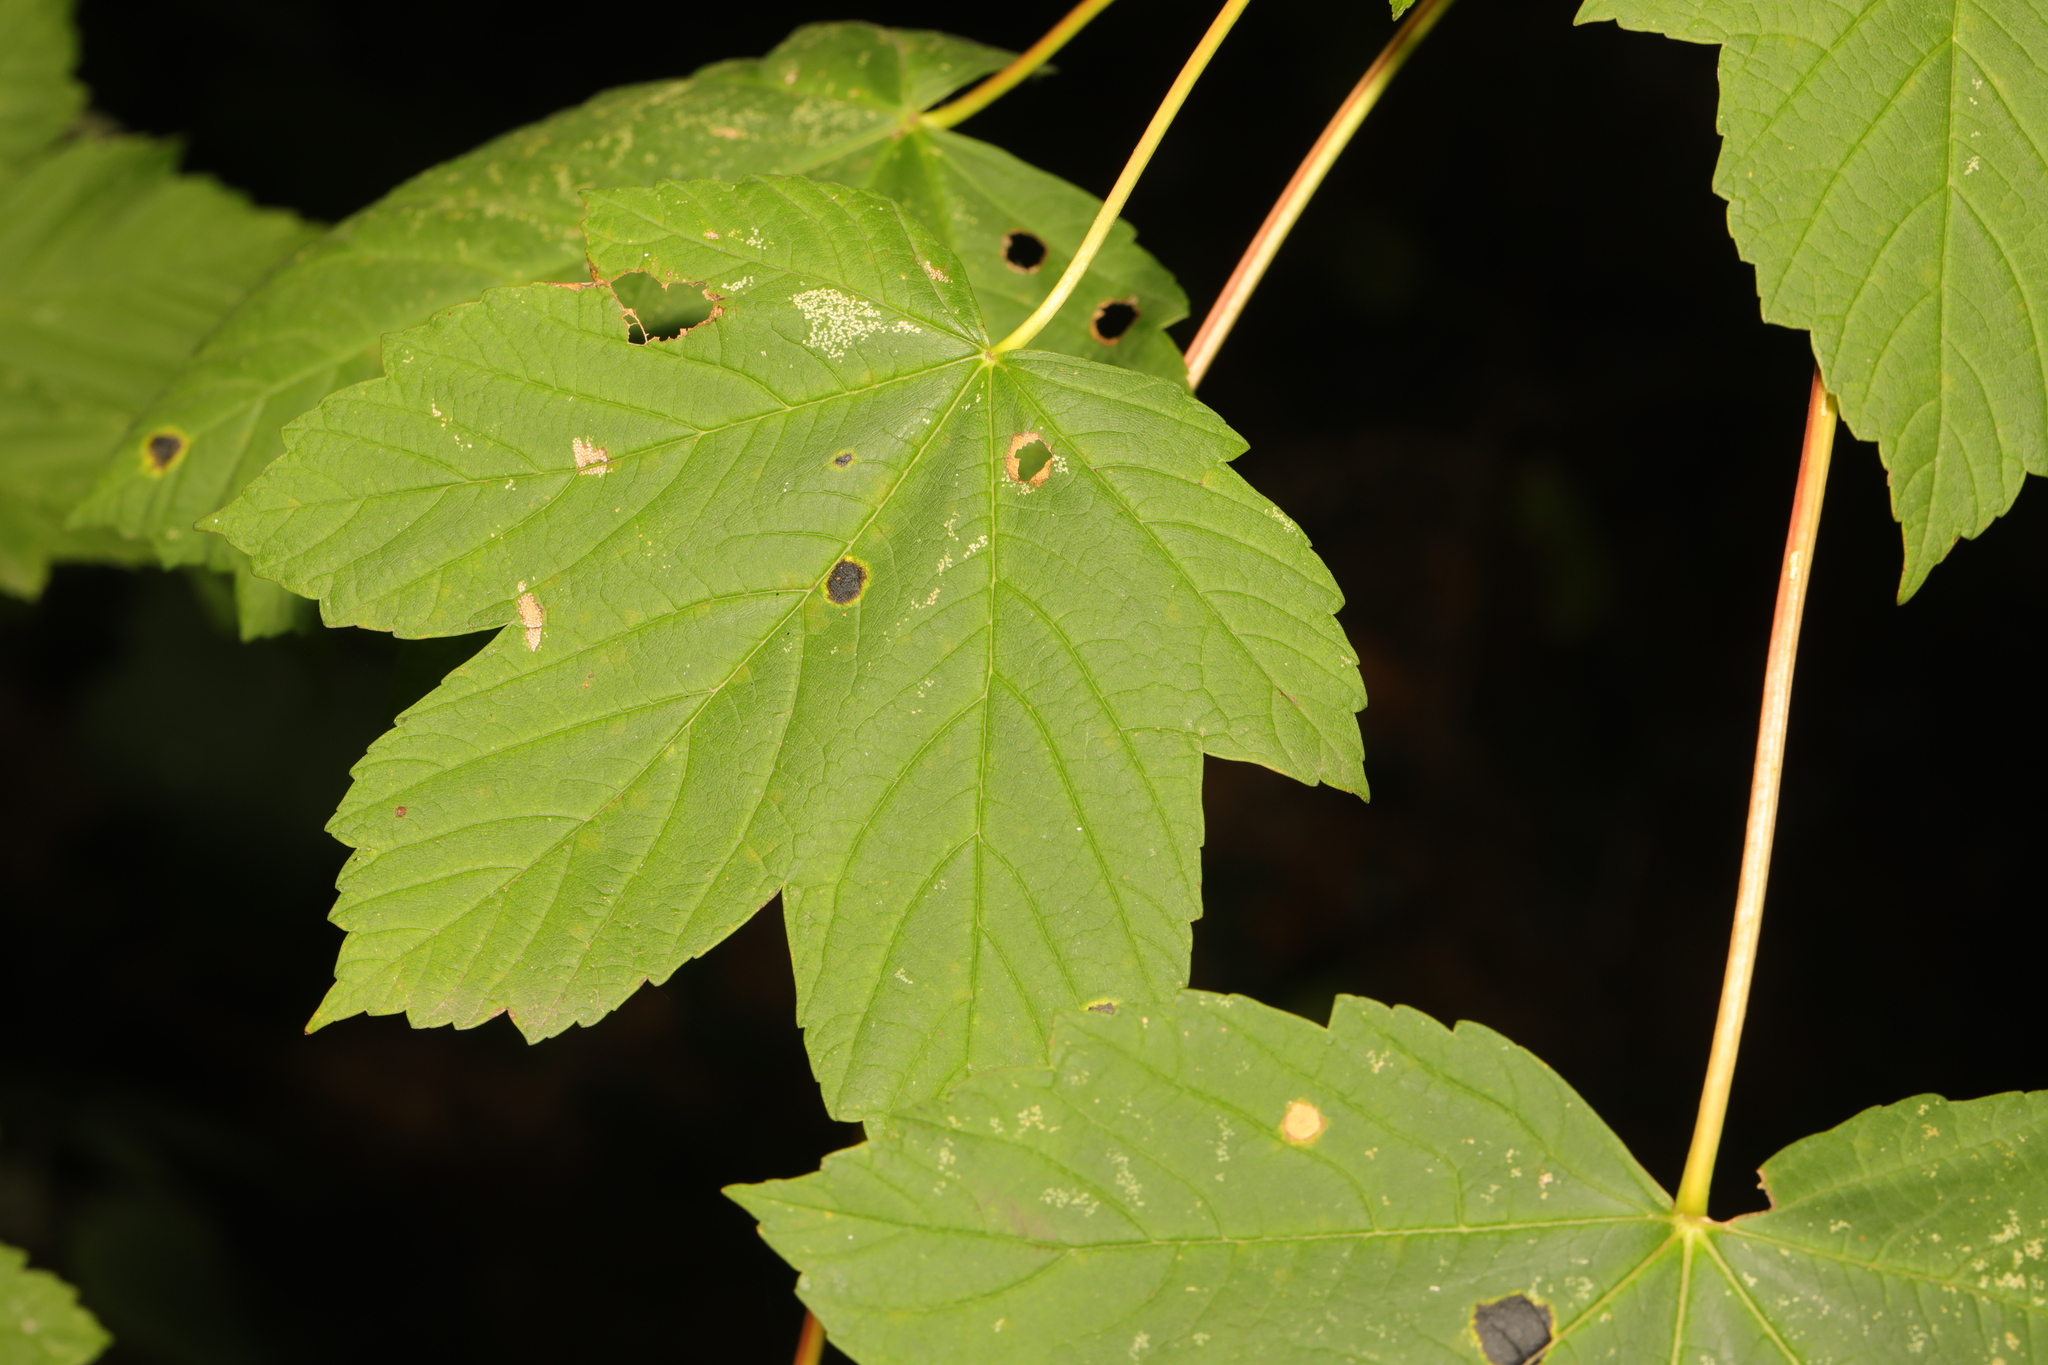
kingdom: Plantae
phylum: Tracheophyta
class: Magnoliopsida
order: Sapindales
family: Sapindaceae
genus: Acer
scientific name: Acer pseudoplatanus
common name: Sycamore
